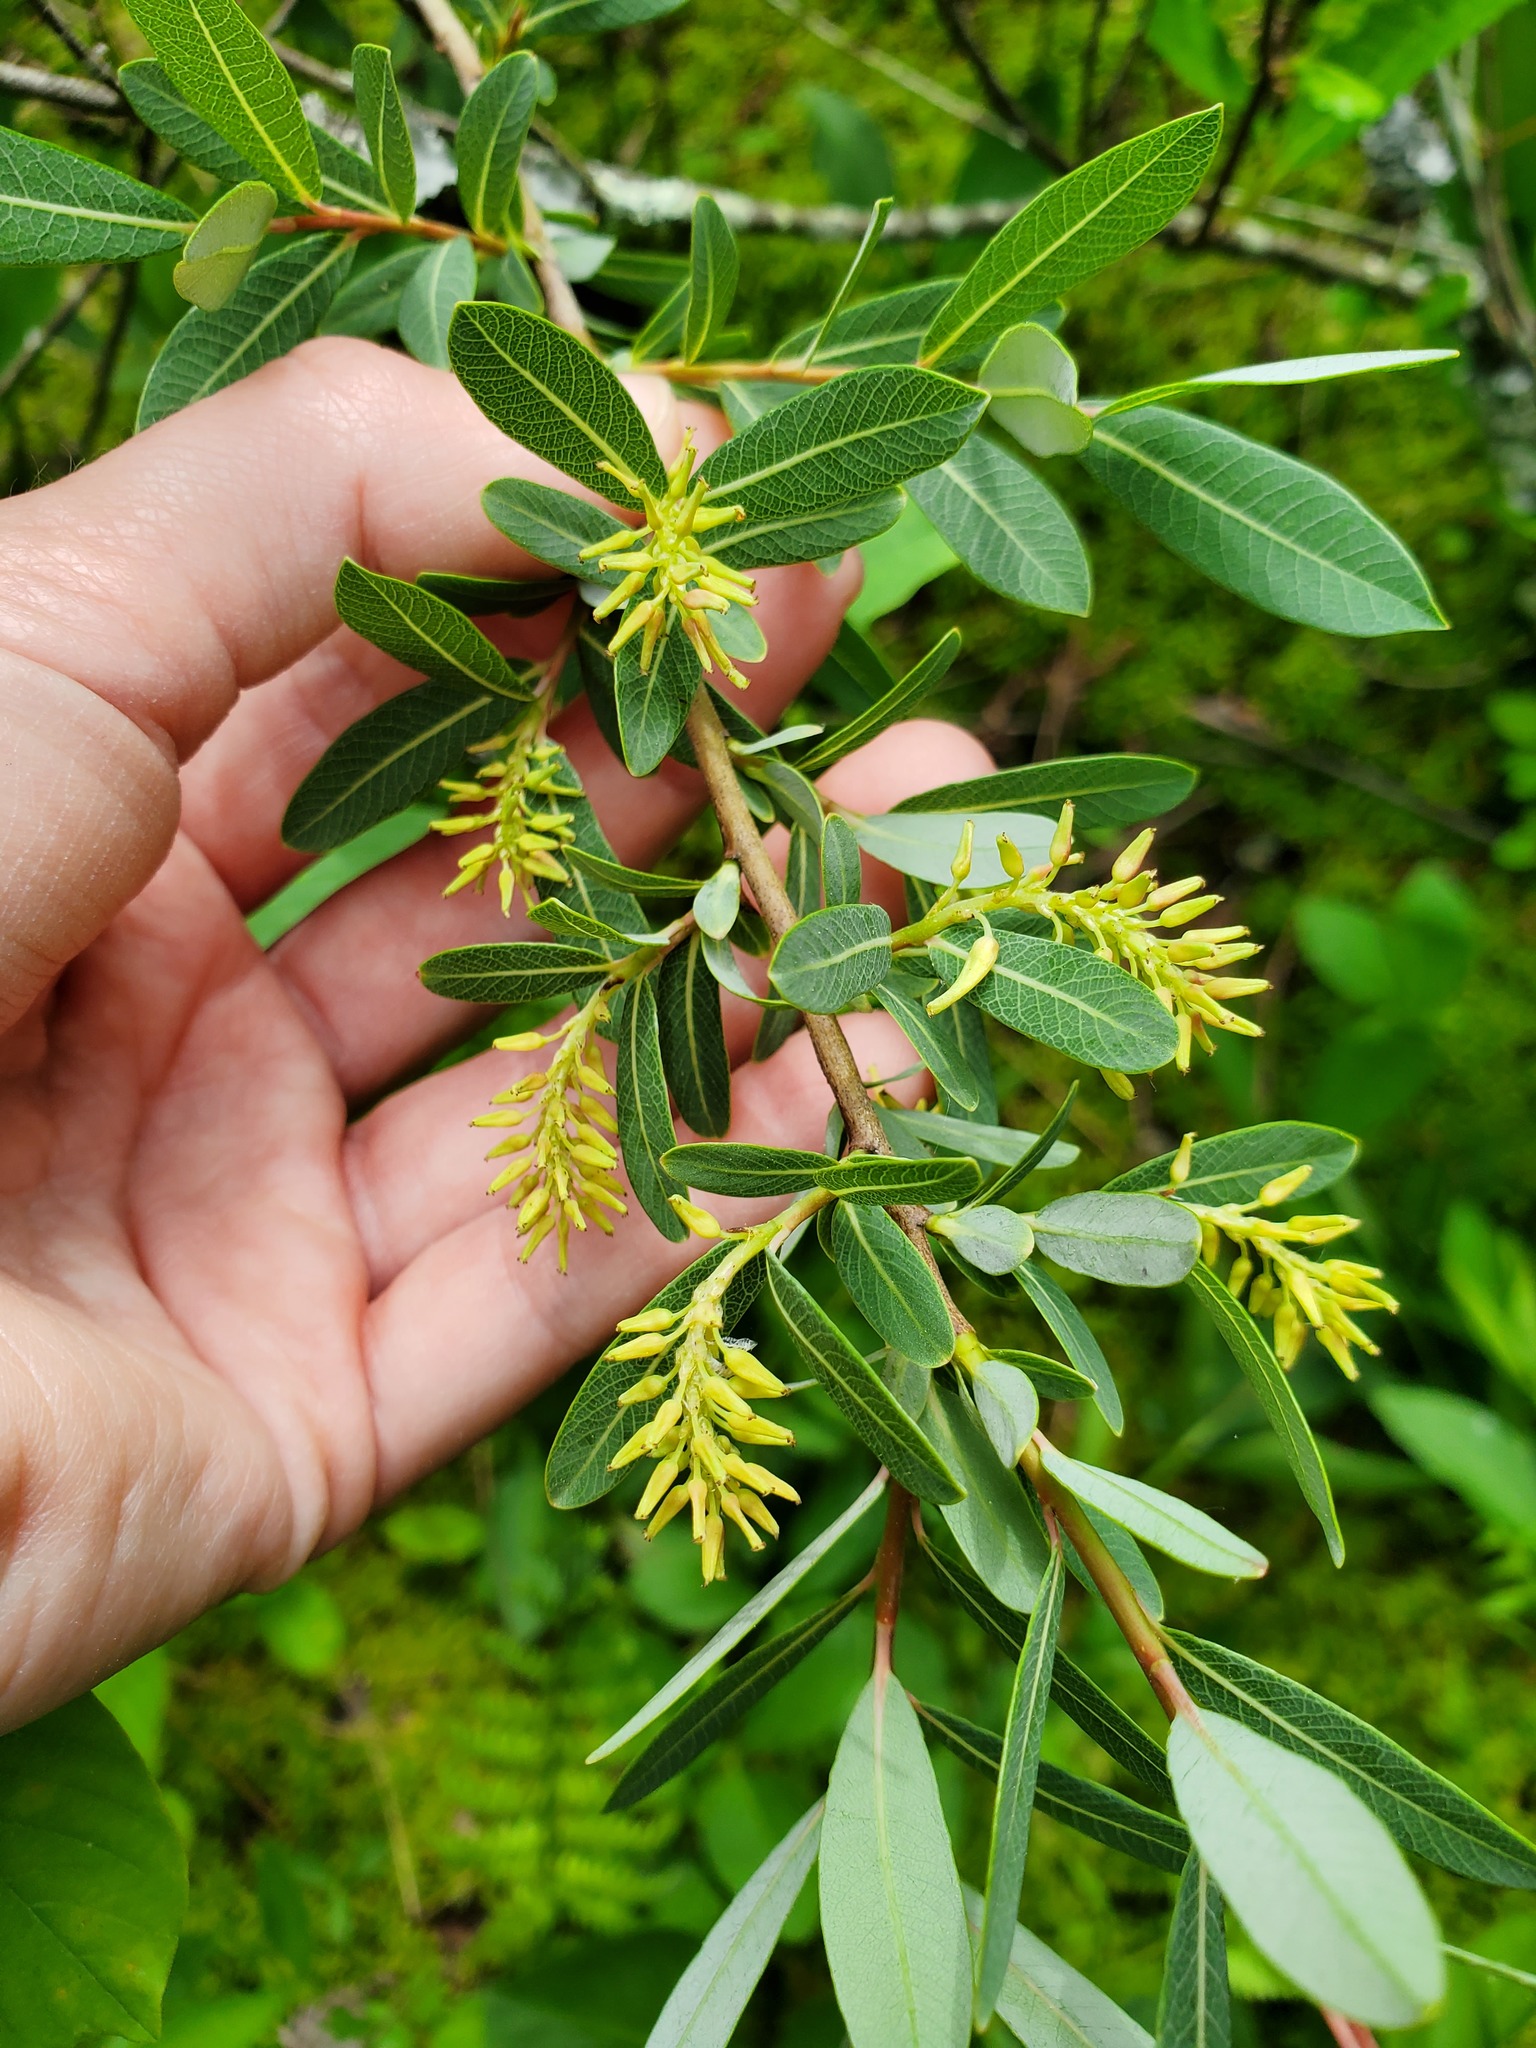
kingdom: Plantae
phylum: Tracheophyta
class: Magnoliopsida
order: Malpighiales
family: Salicaceae
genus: Salix
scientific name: Salix pedicellaris
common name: Bog willow
